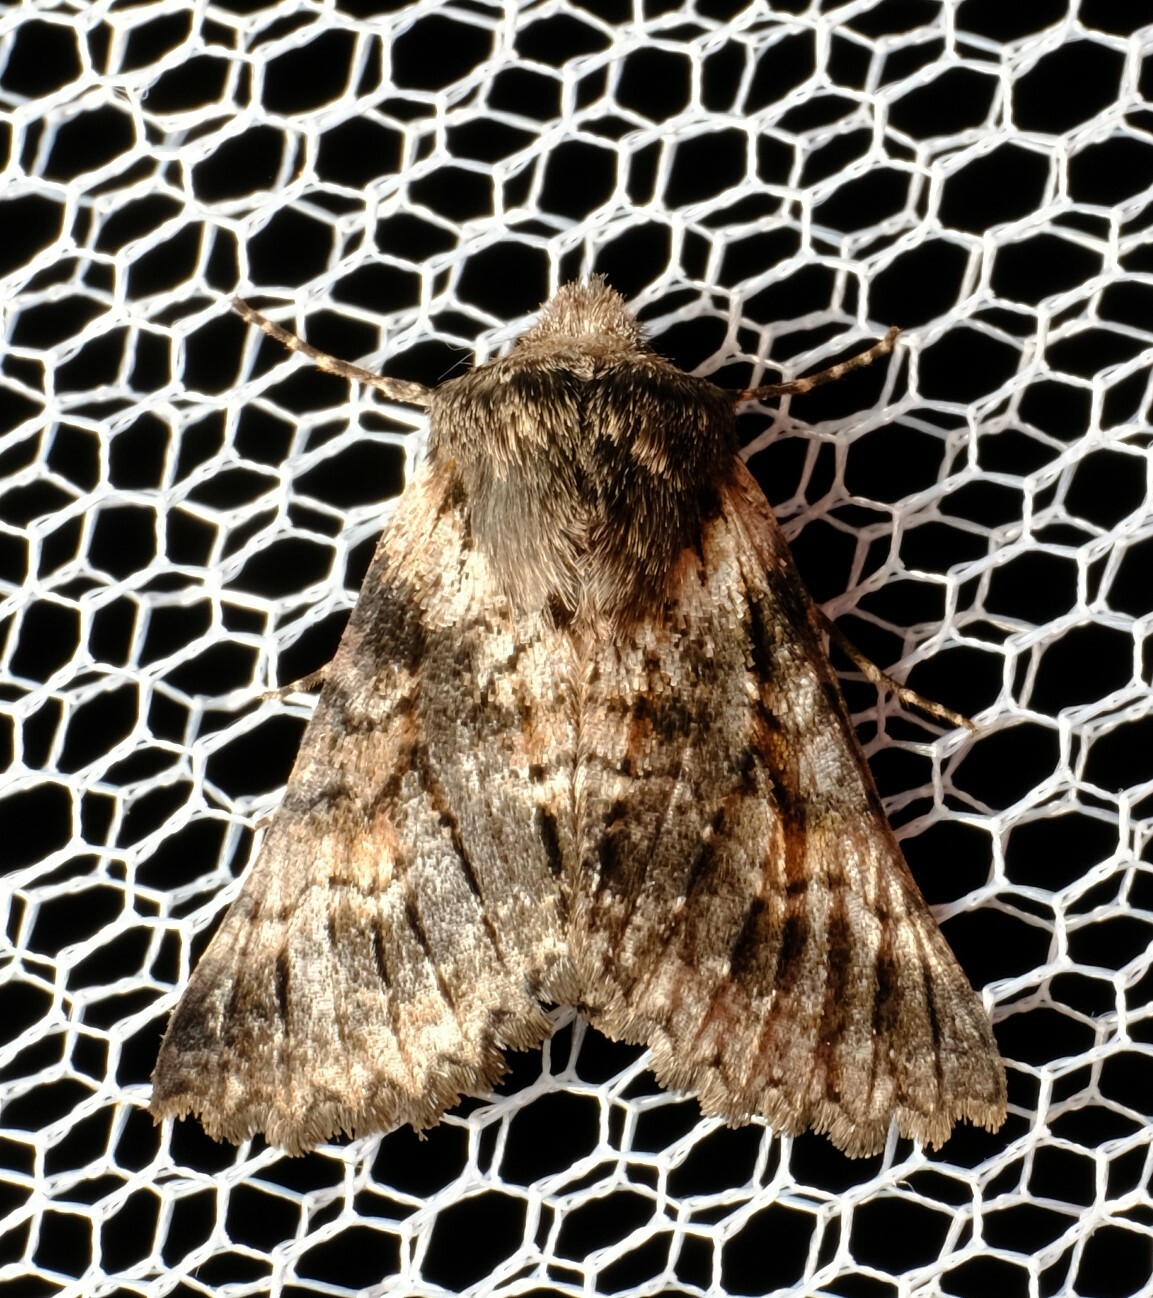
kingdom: Animalia
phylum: Arthropoda
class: Insecta
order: Lepidoptera
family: Geometridae
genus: Dinophalus
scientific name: Dinophalus ampycteria
